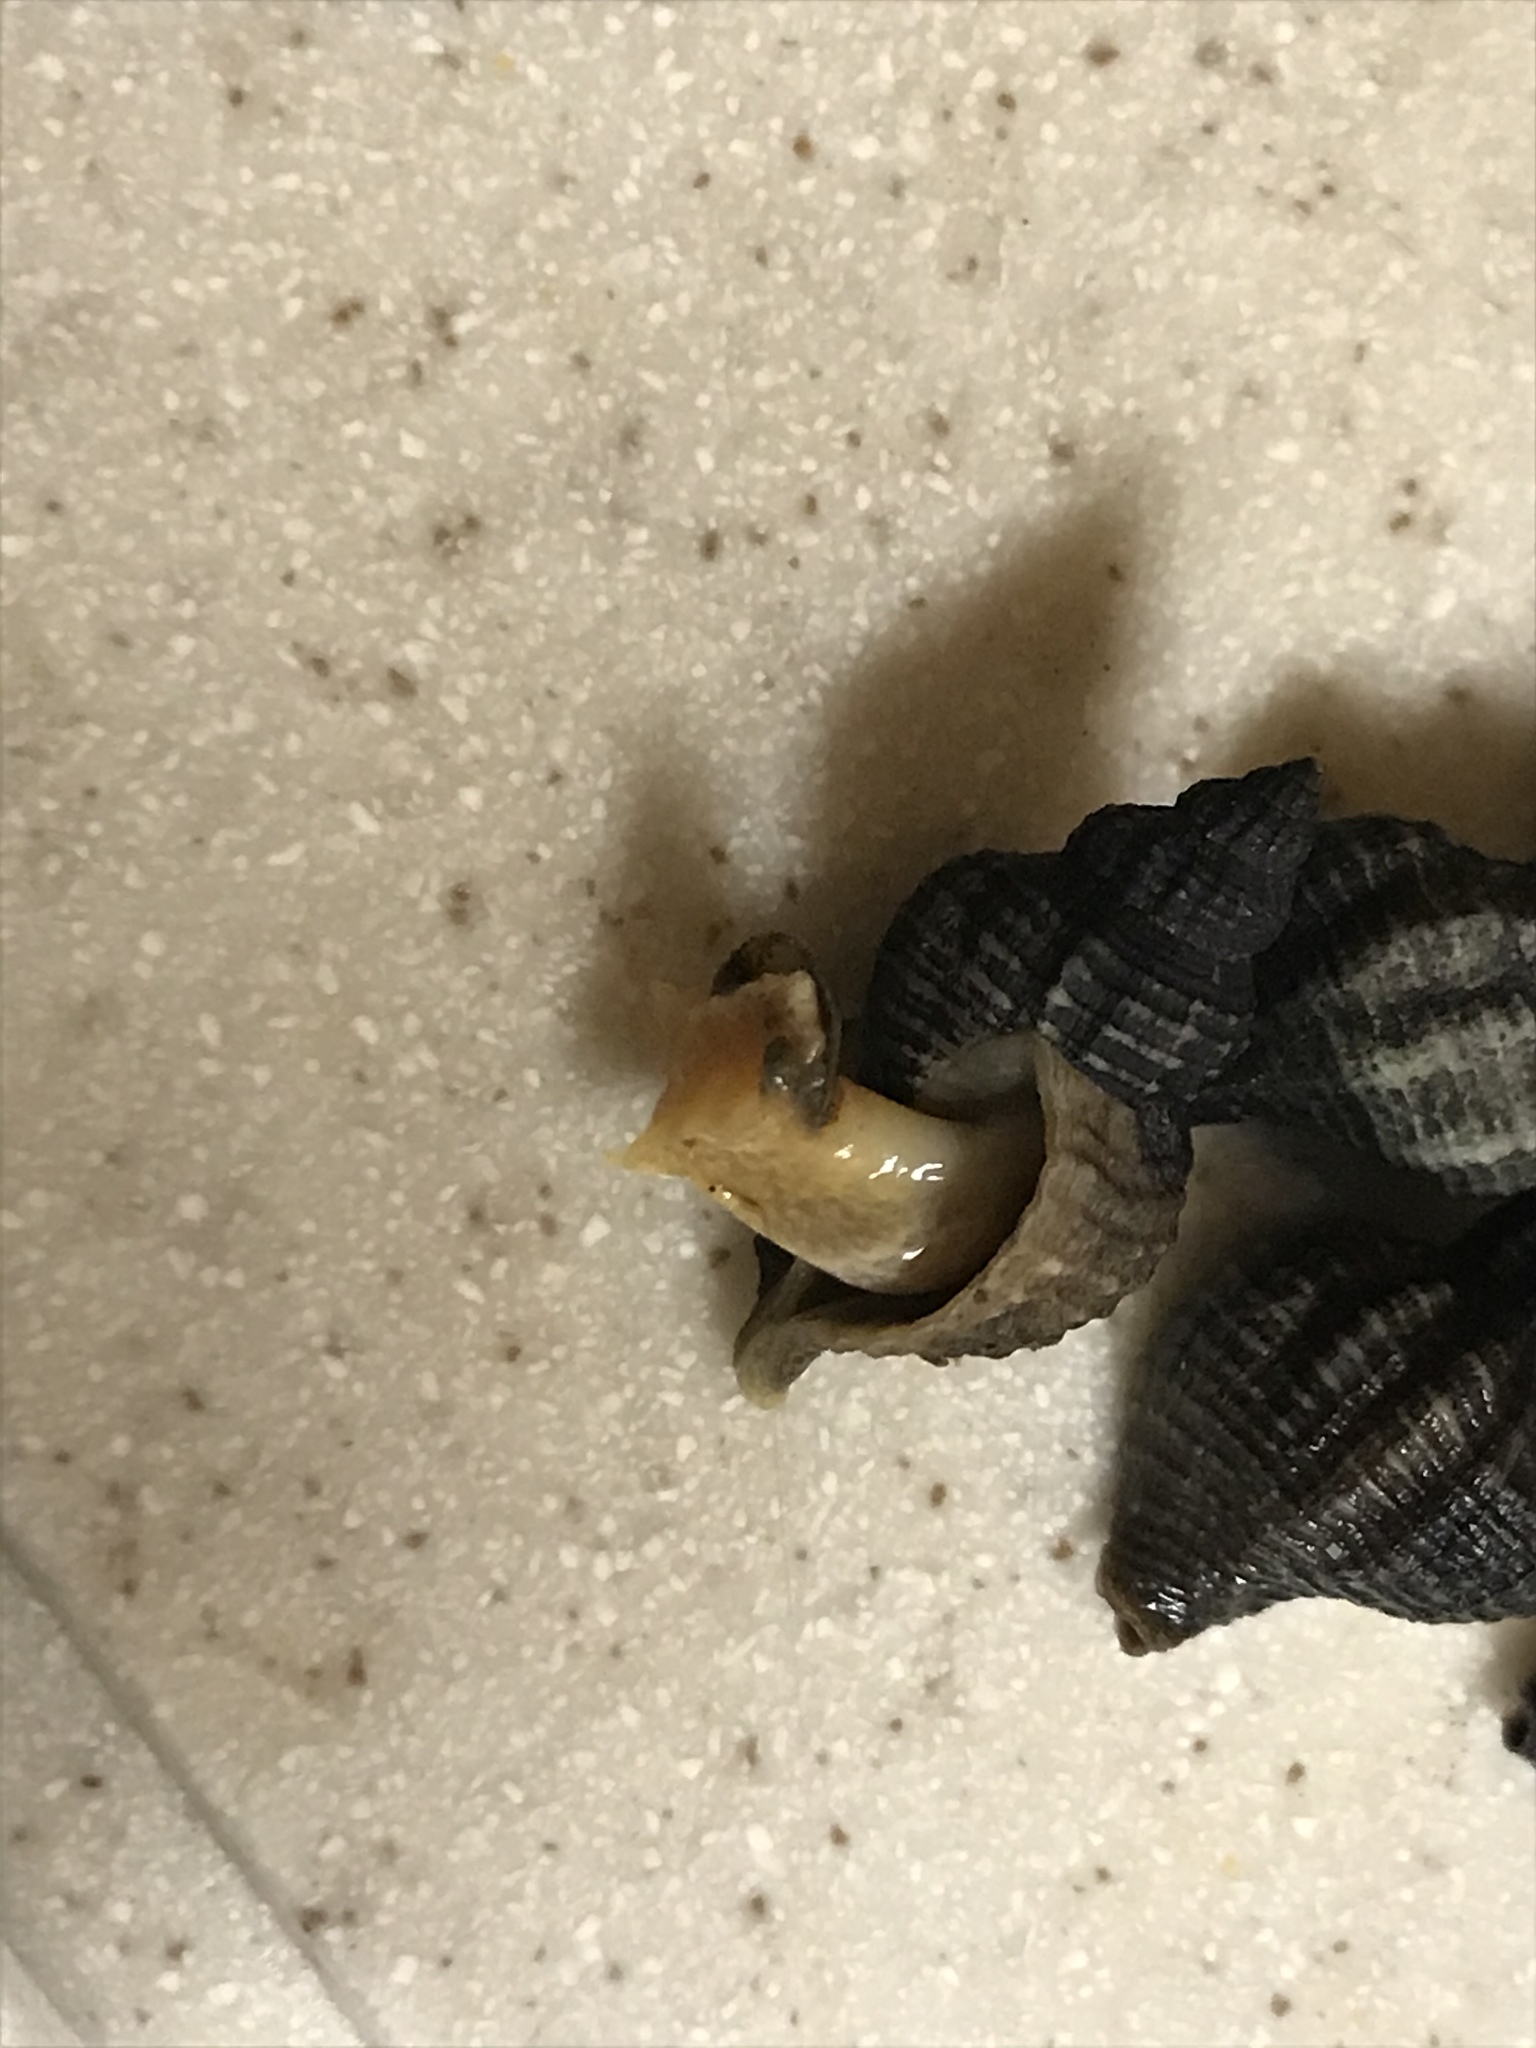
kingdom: Animalia
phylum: Mollusca
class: Gastropoda
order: Neogastropoda
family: Muricidae
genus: Urosalpinx
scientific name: Urosalpinx cinerea
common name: American sting winkle
